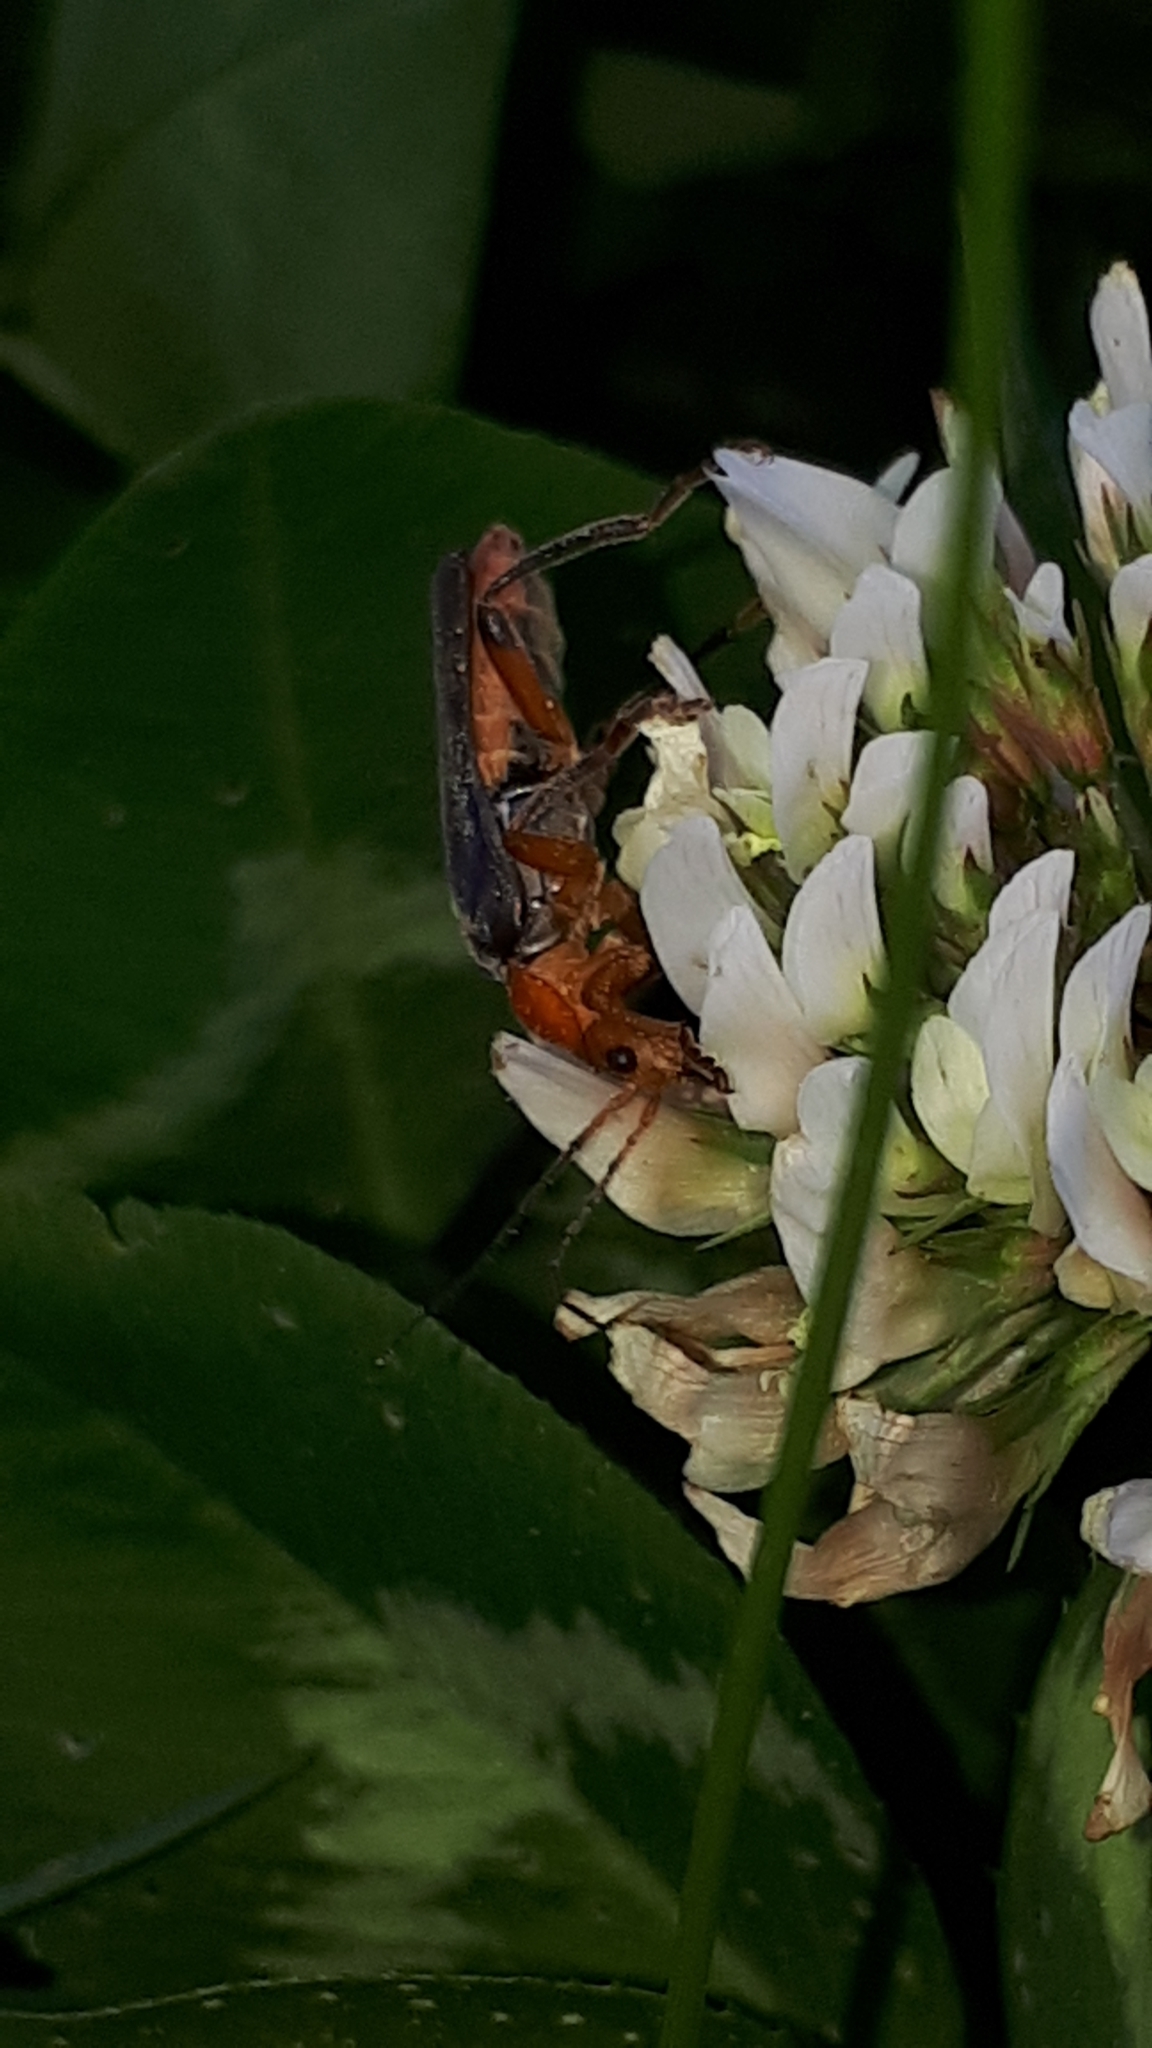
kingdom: Animalia
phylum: Arthropoda
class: Insecta
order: Coleoptera
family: Cantharidae
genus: Cantharis
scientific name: Cantharis livida
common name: Livid soldier beetle
